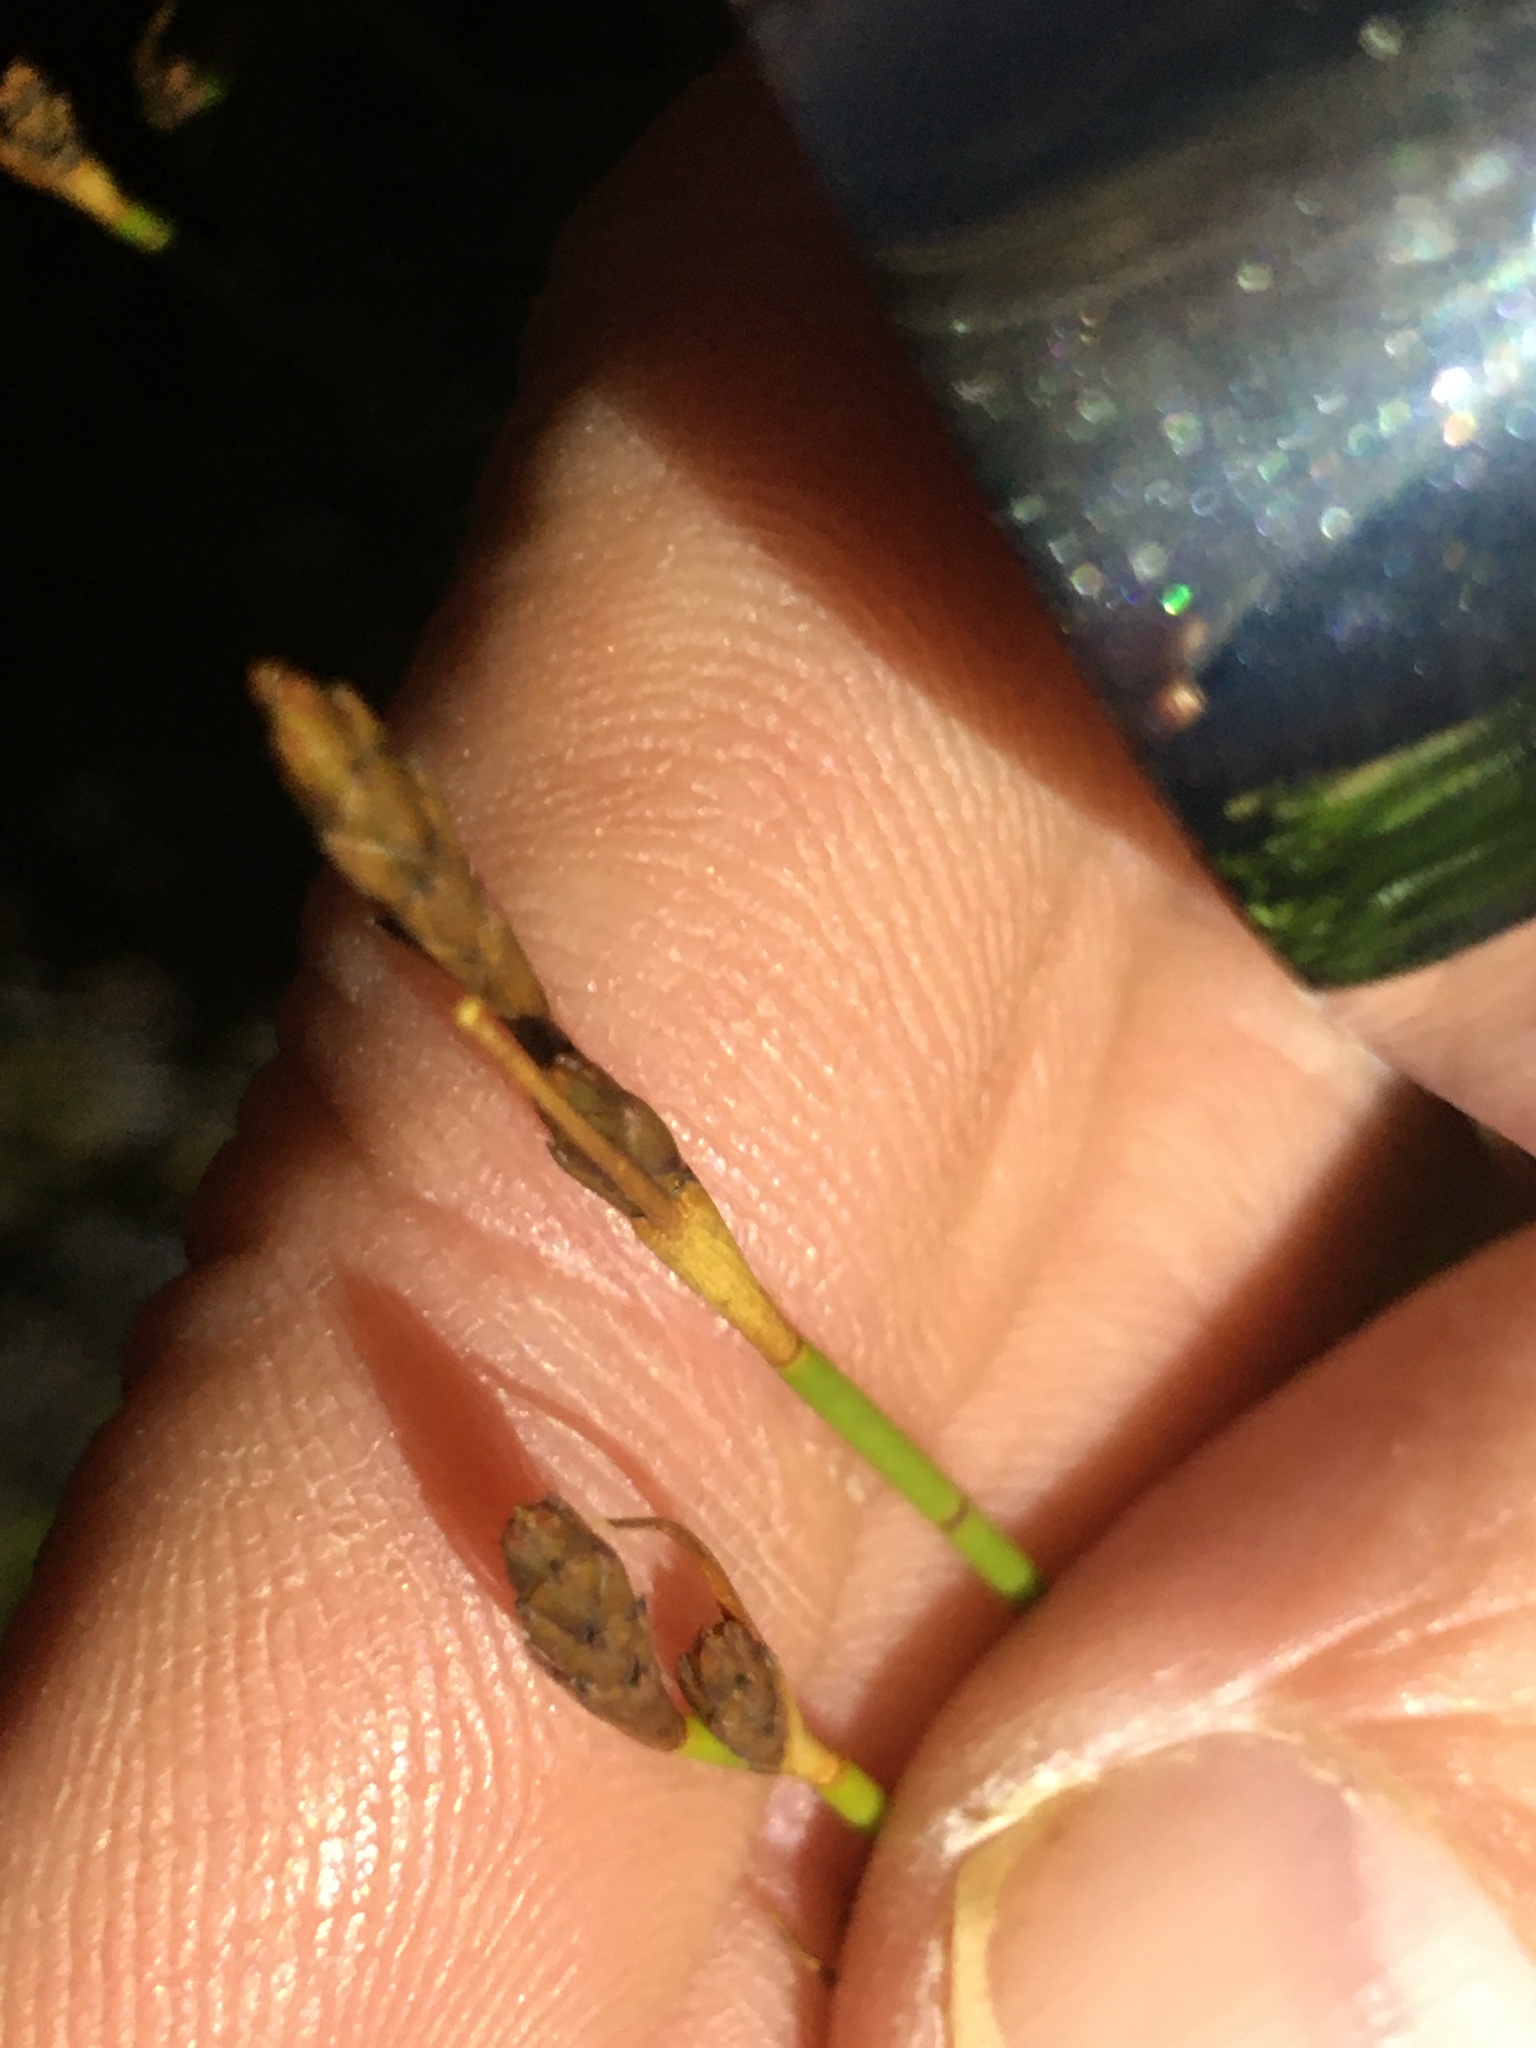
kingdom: Plantae
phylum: Tracheophyta
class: Liliopsida
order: Poales
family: Restionaceae
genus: Restio
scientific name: Restio quinquefarius
